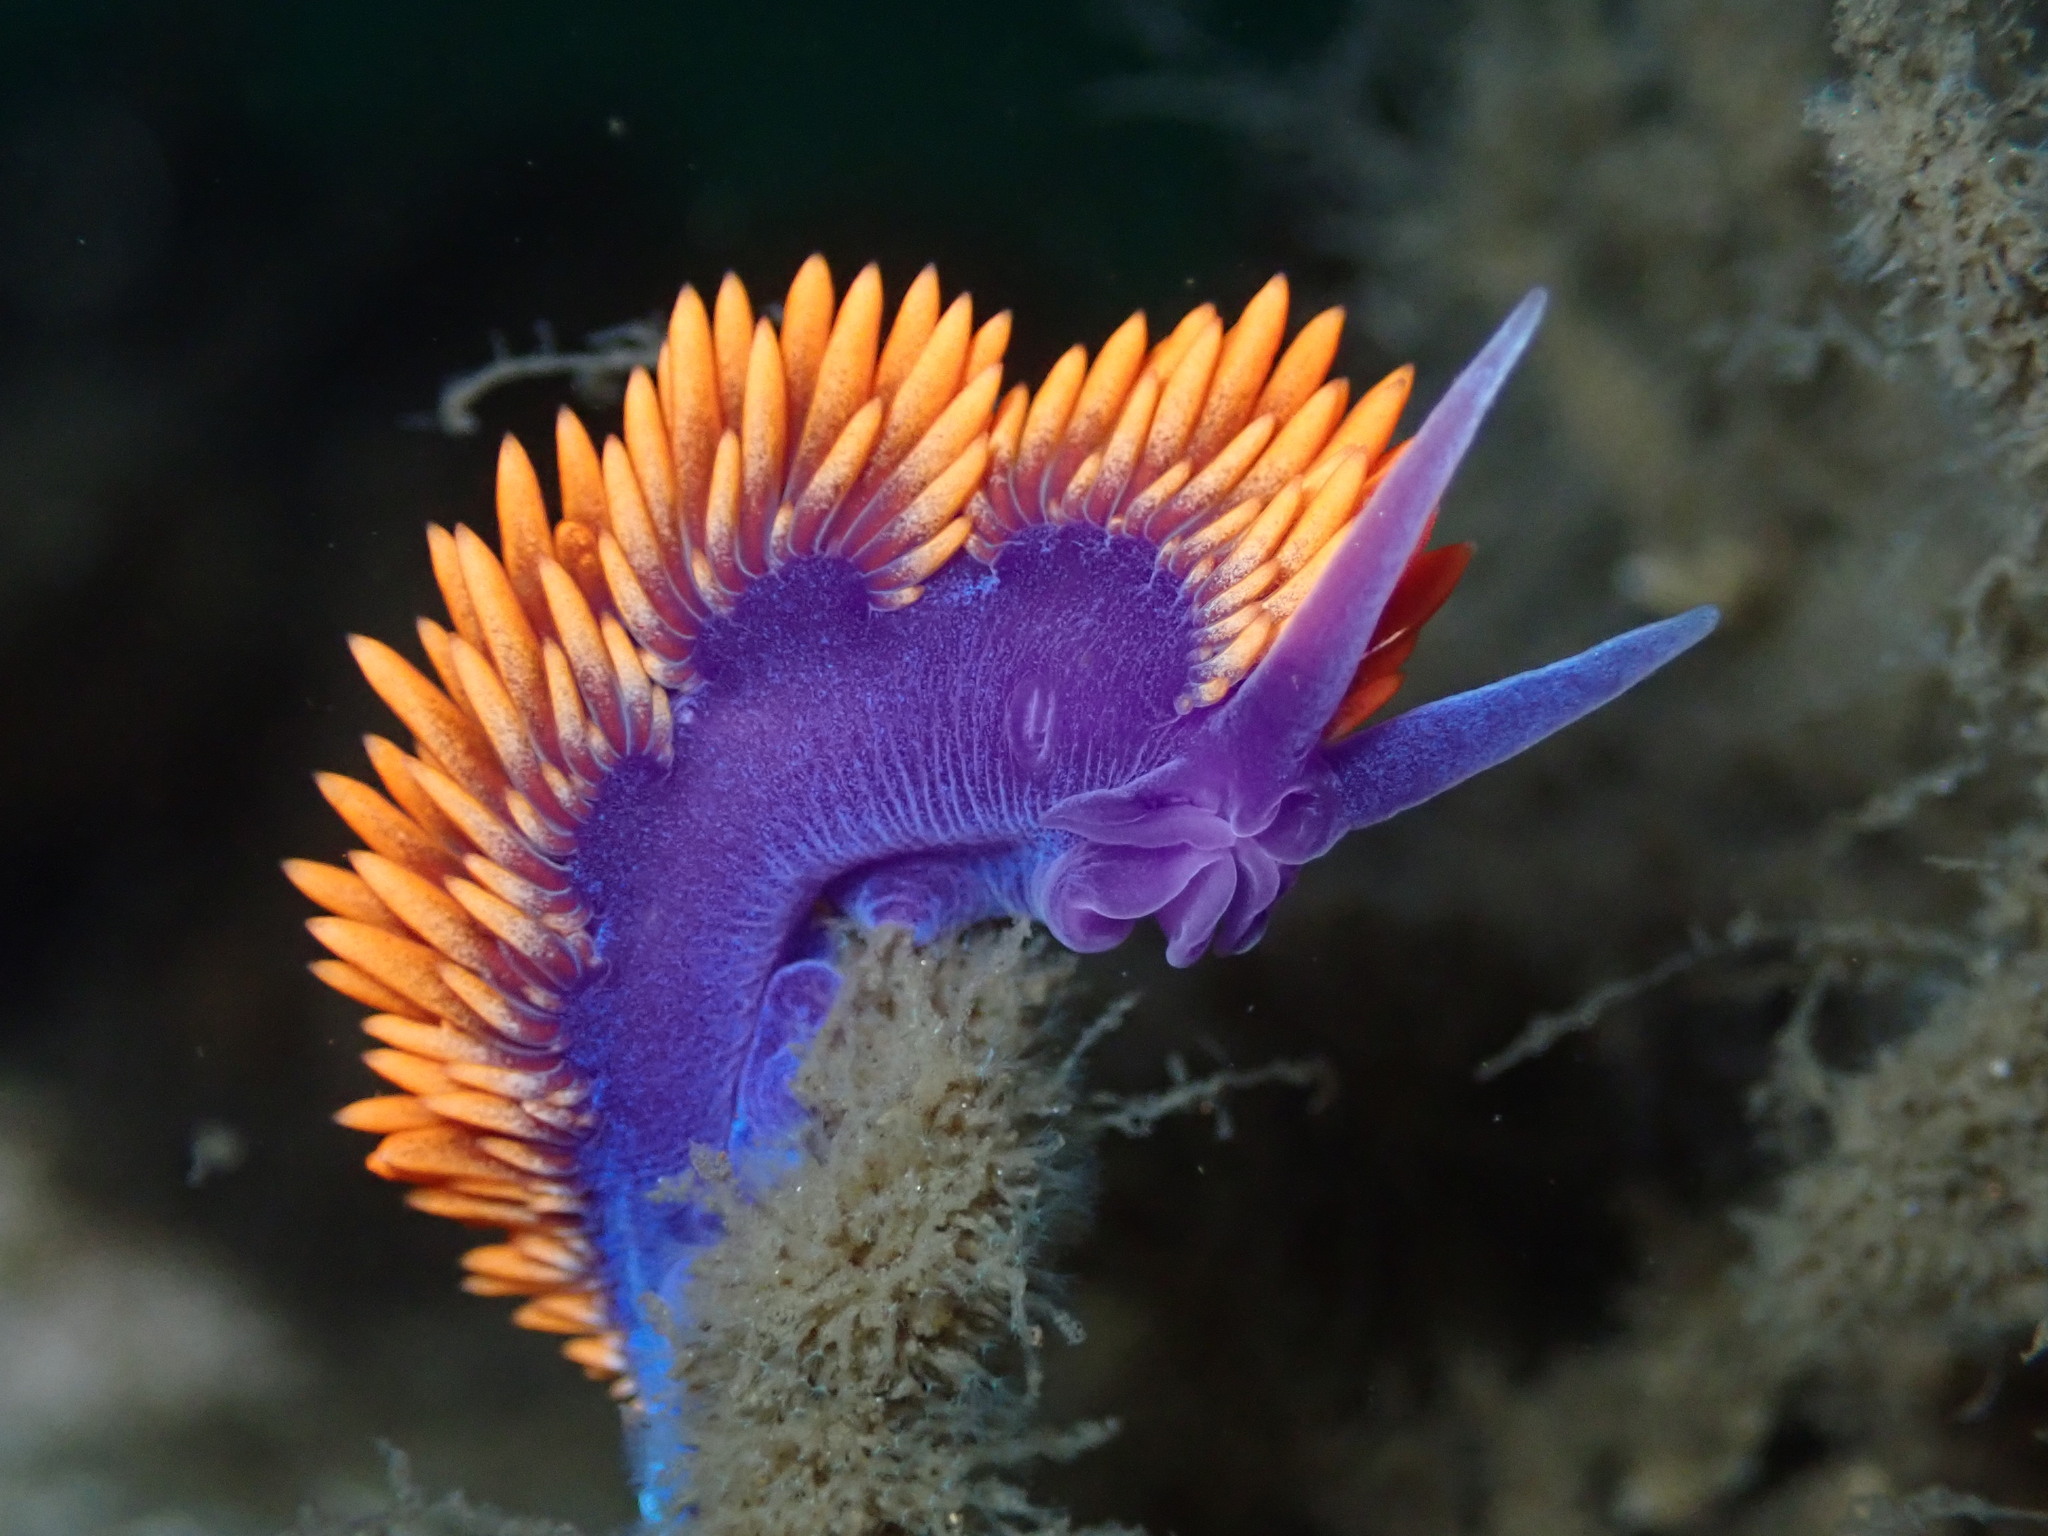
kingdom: Animalia
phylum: Mollusca
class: Gastropoda
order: Nudibranchia
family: Flabellinopsidae
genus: Flabellinopsis
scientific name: Flabellinopsis iodinea
